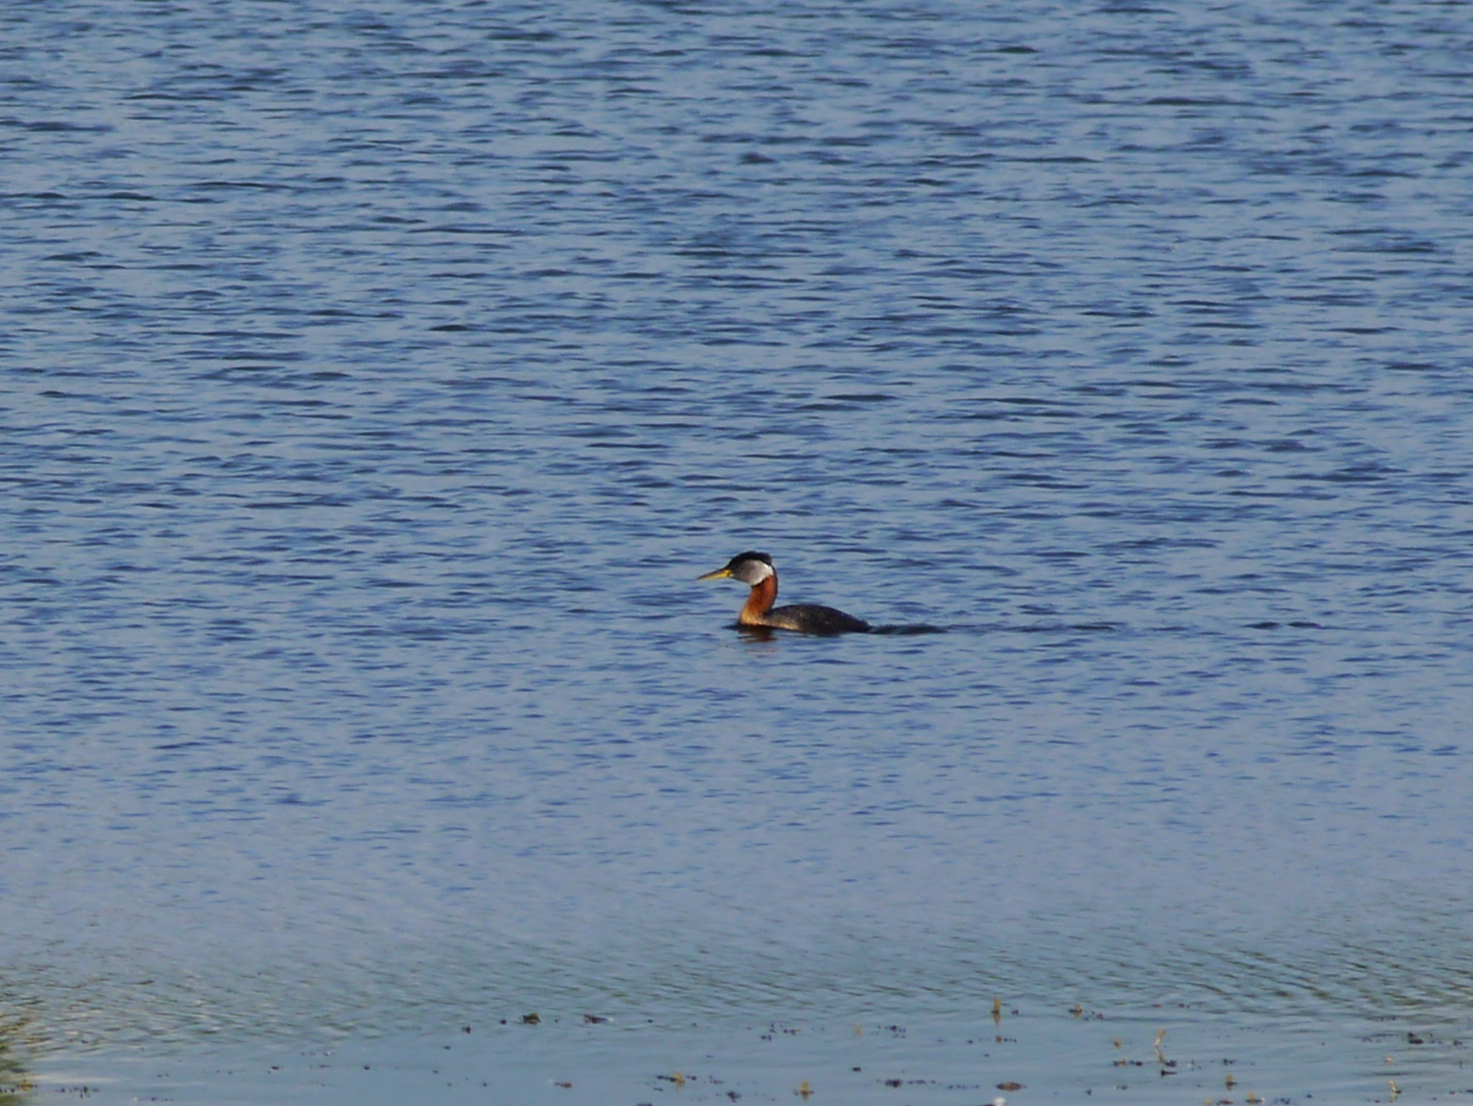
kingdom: Animalia
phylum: Chordata
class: Aves
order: Podicipediformes
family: Podicipedidae
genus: Podiceps
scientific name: Podiceps grisegena
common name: Red-necked grebe
